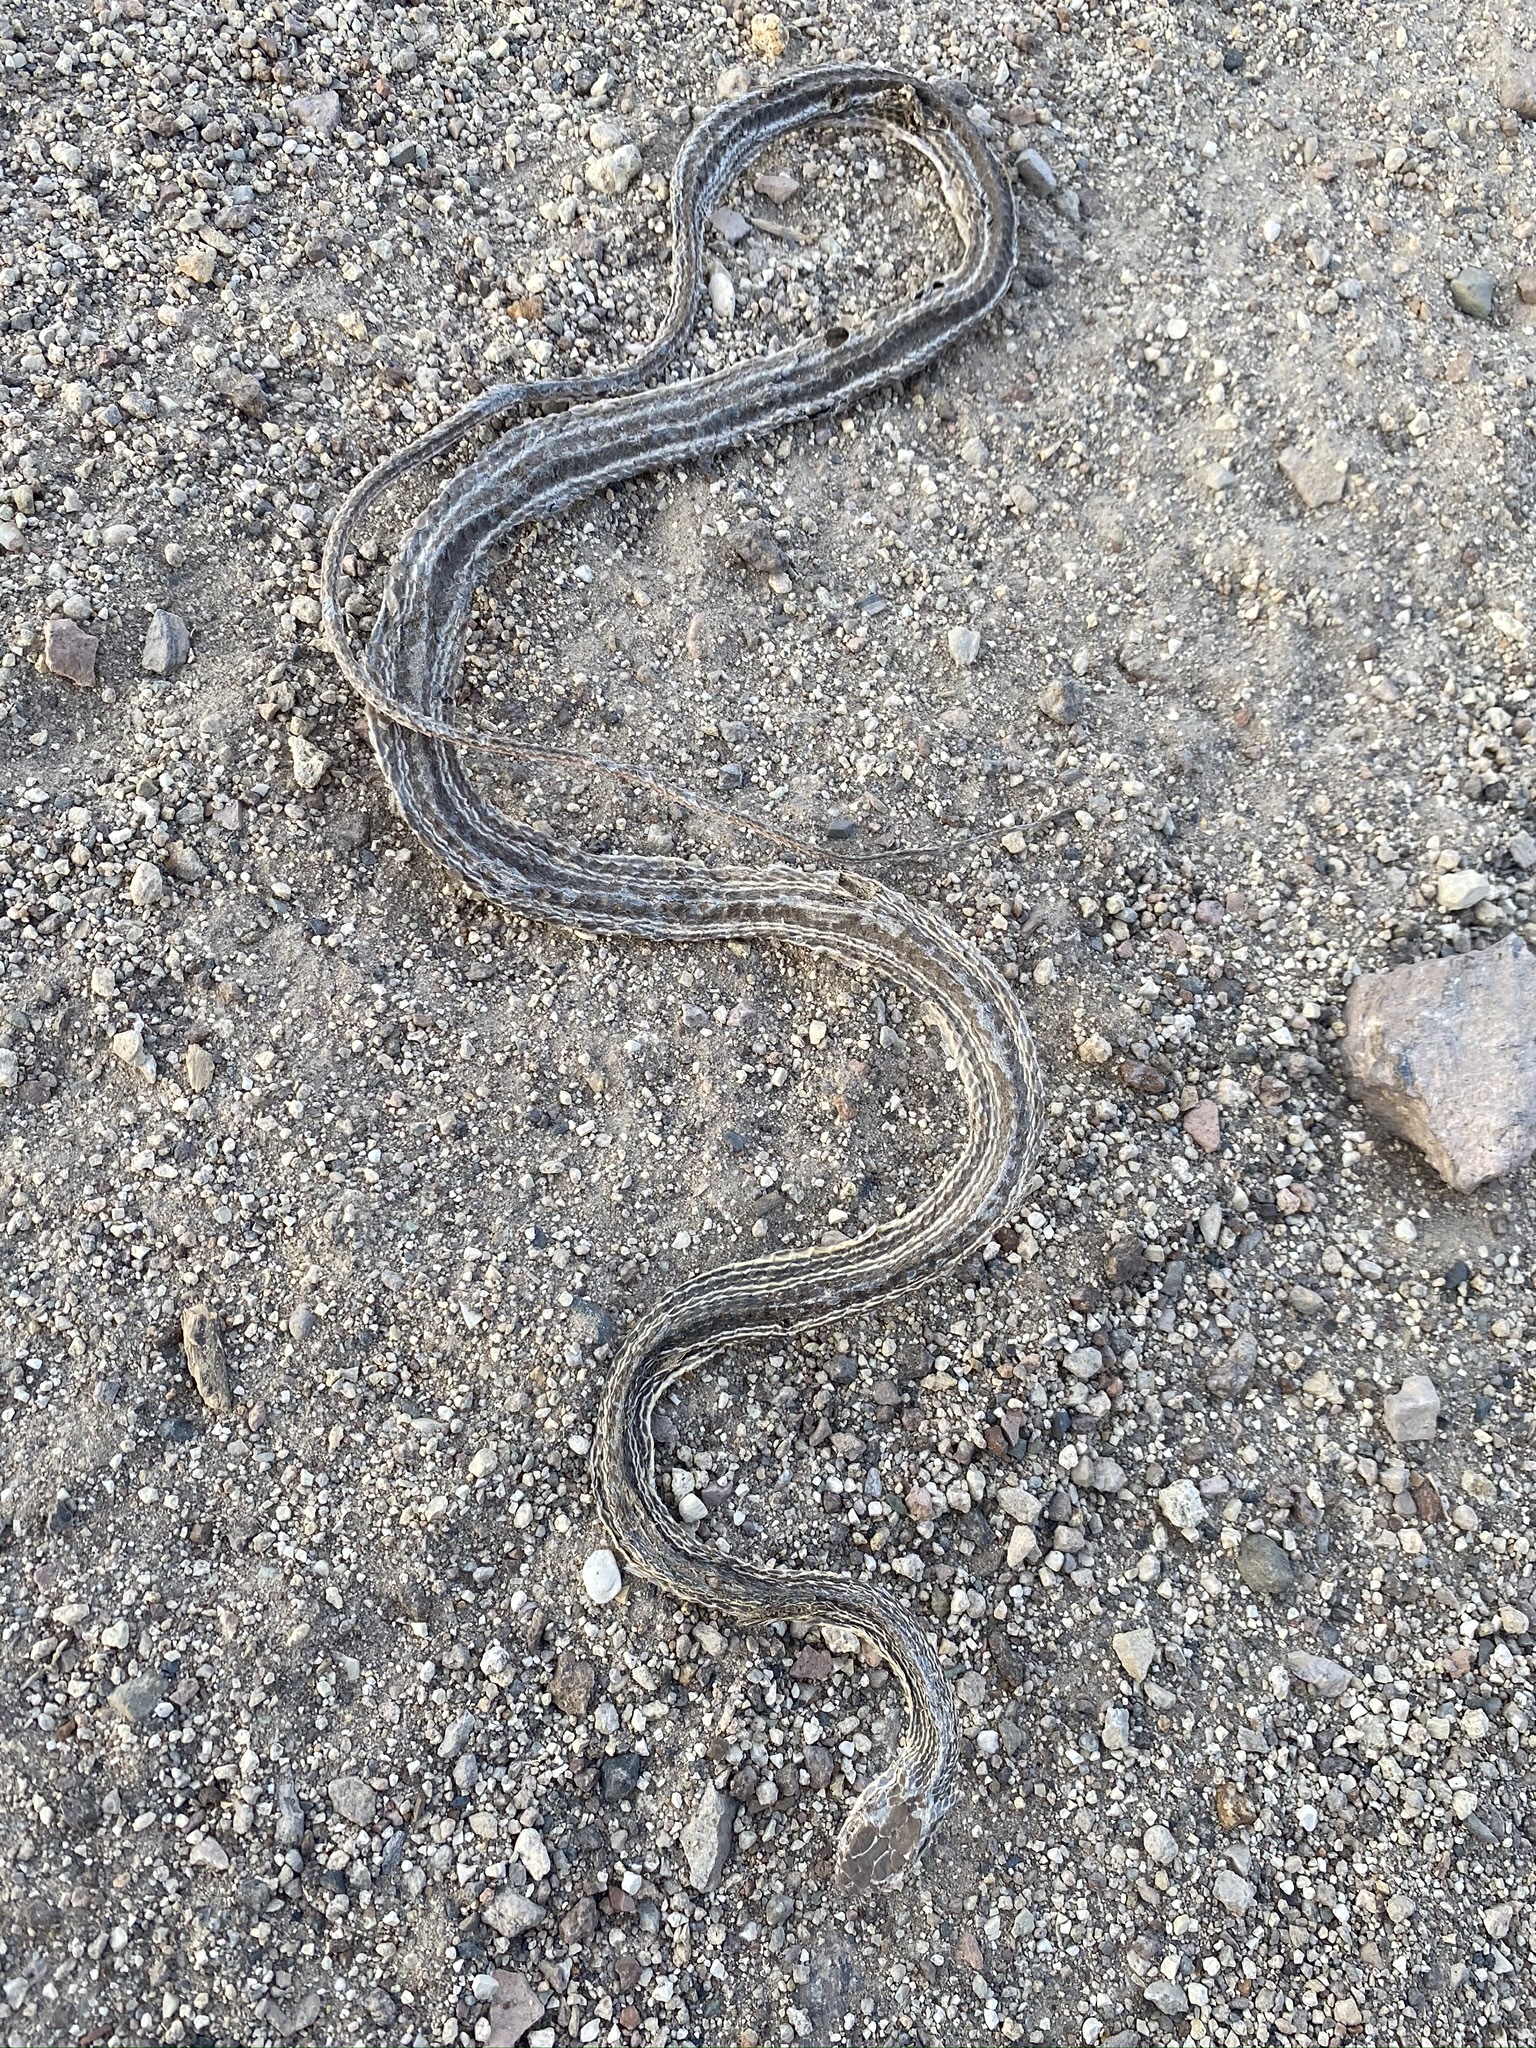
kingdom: Animalia
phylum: Chordata
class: Squamata
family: Colubridae
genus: Masticophis
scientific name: Masticophis taeniatus
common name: Striped whipsnake
